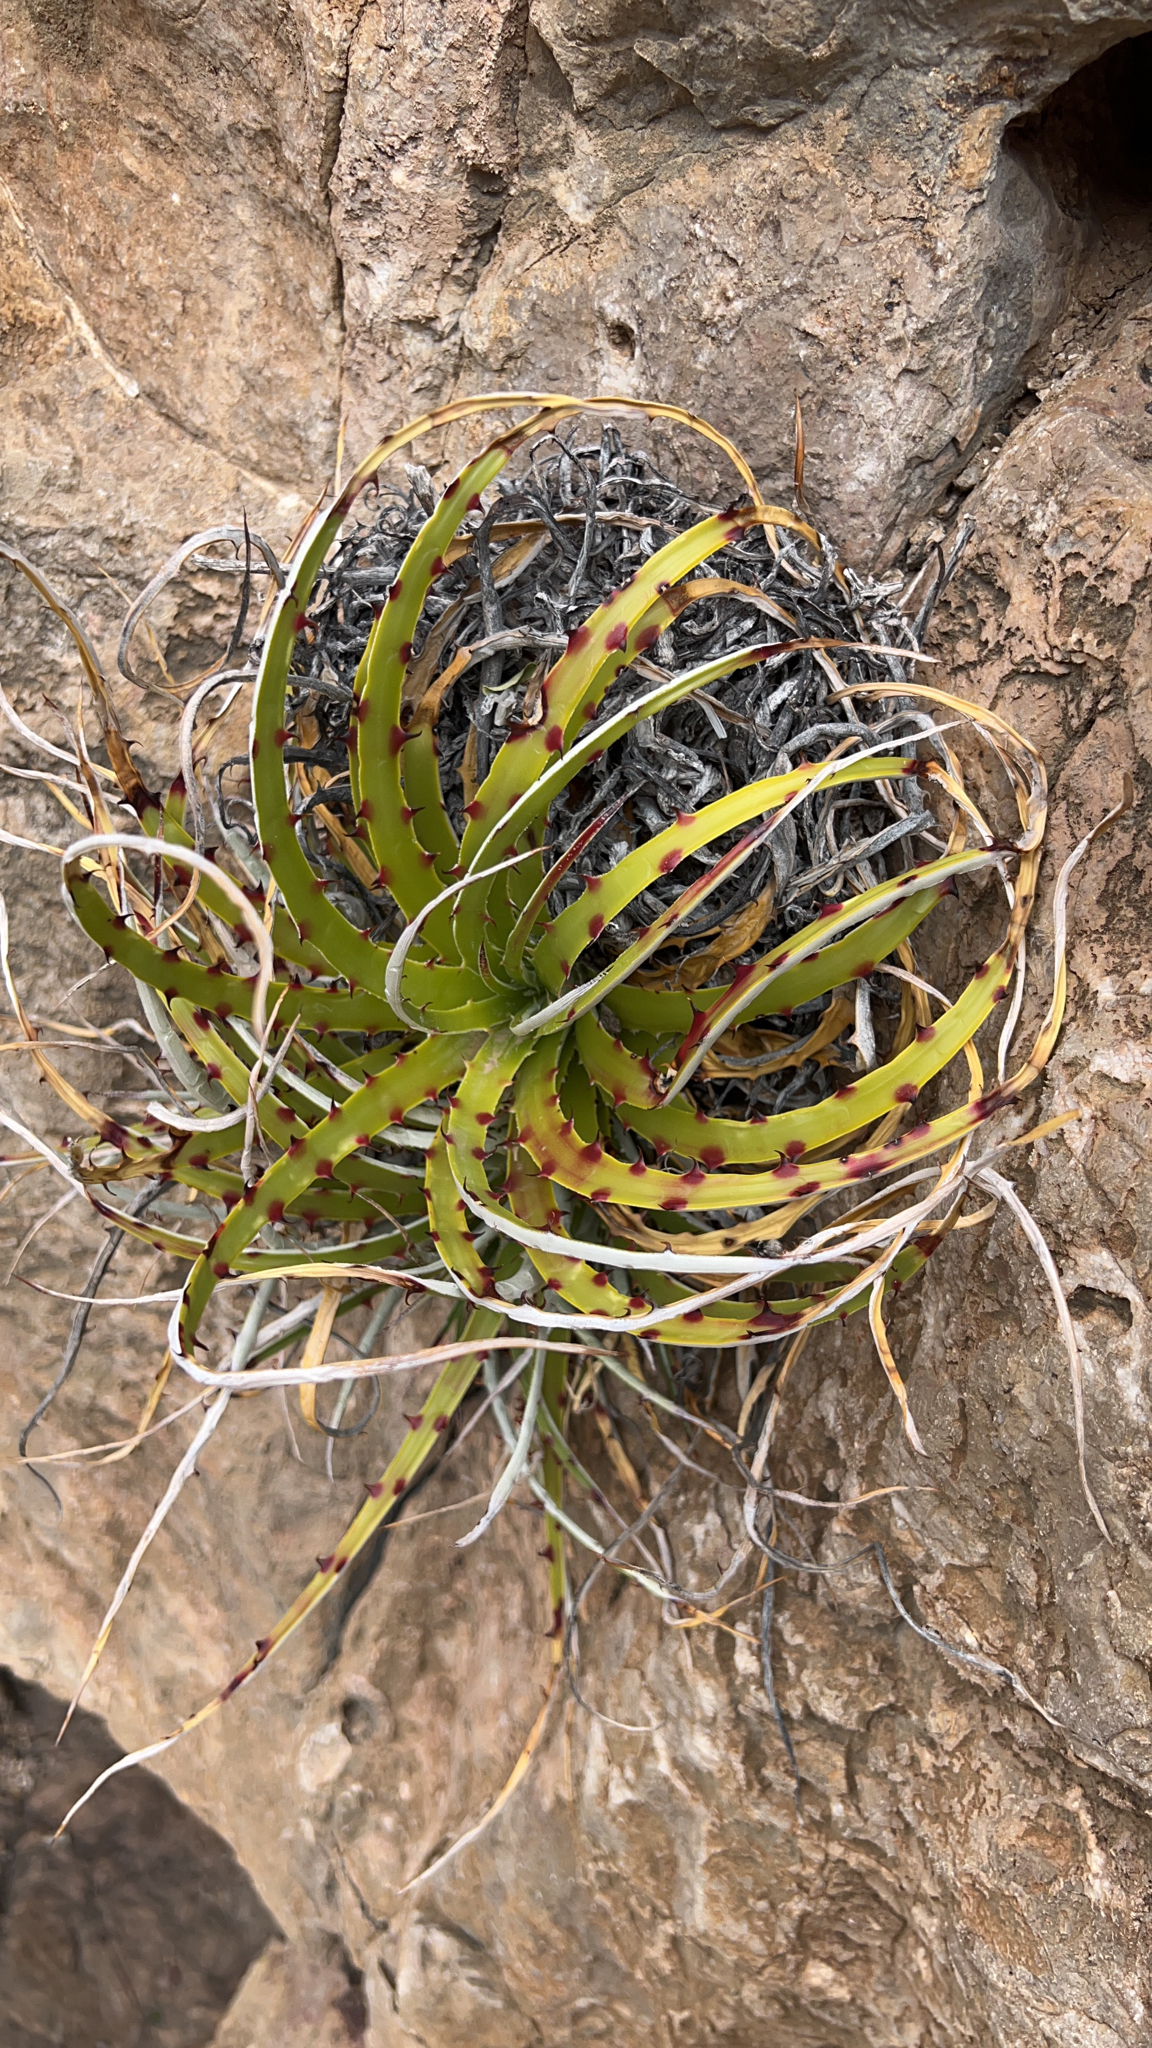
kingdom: Plantae
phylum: Tracheophyta
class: Liliopsida
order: Poales
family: Bromeliaceae
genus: Hechtia
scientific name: Hechtia texensis
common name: False agave
